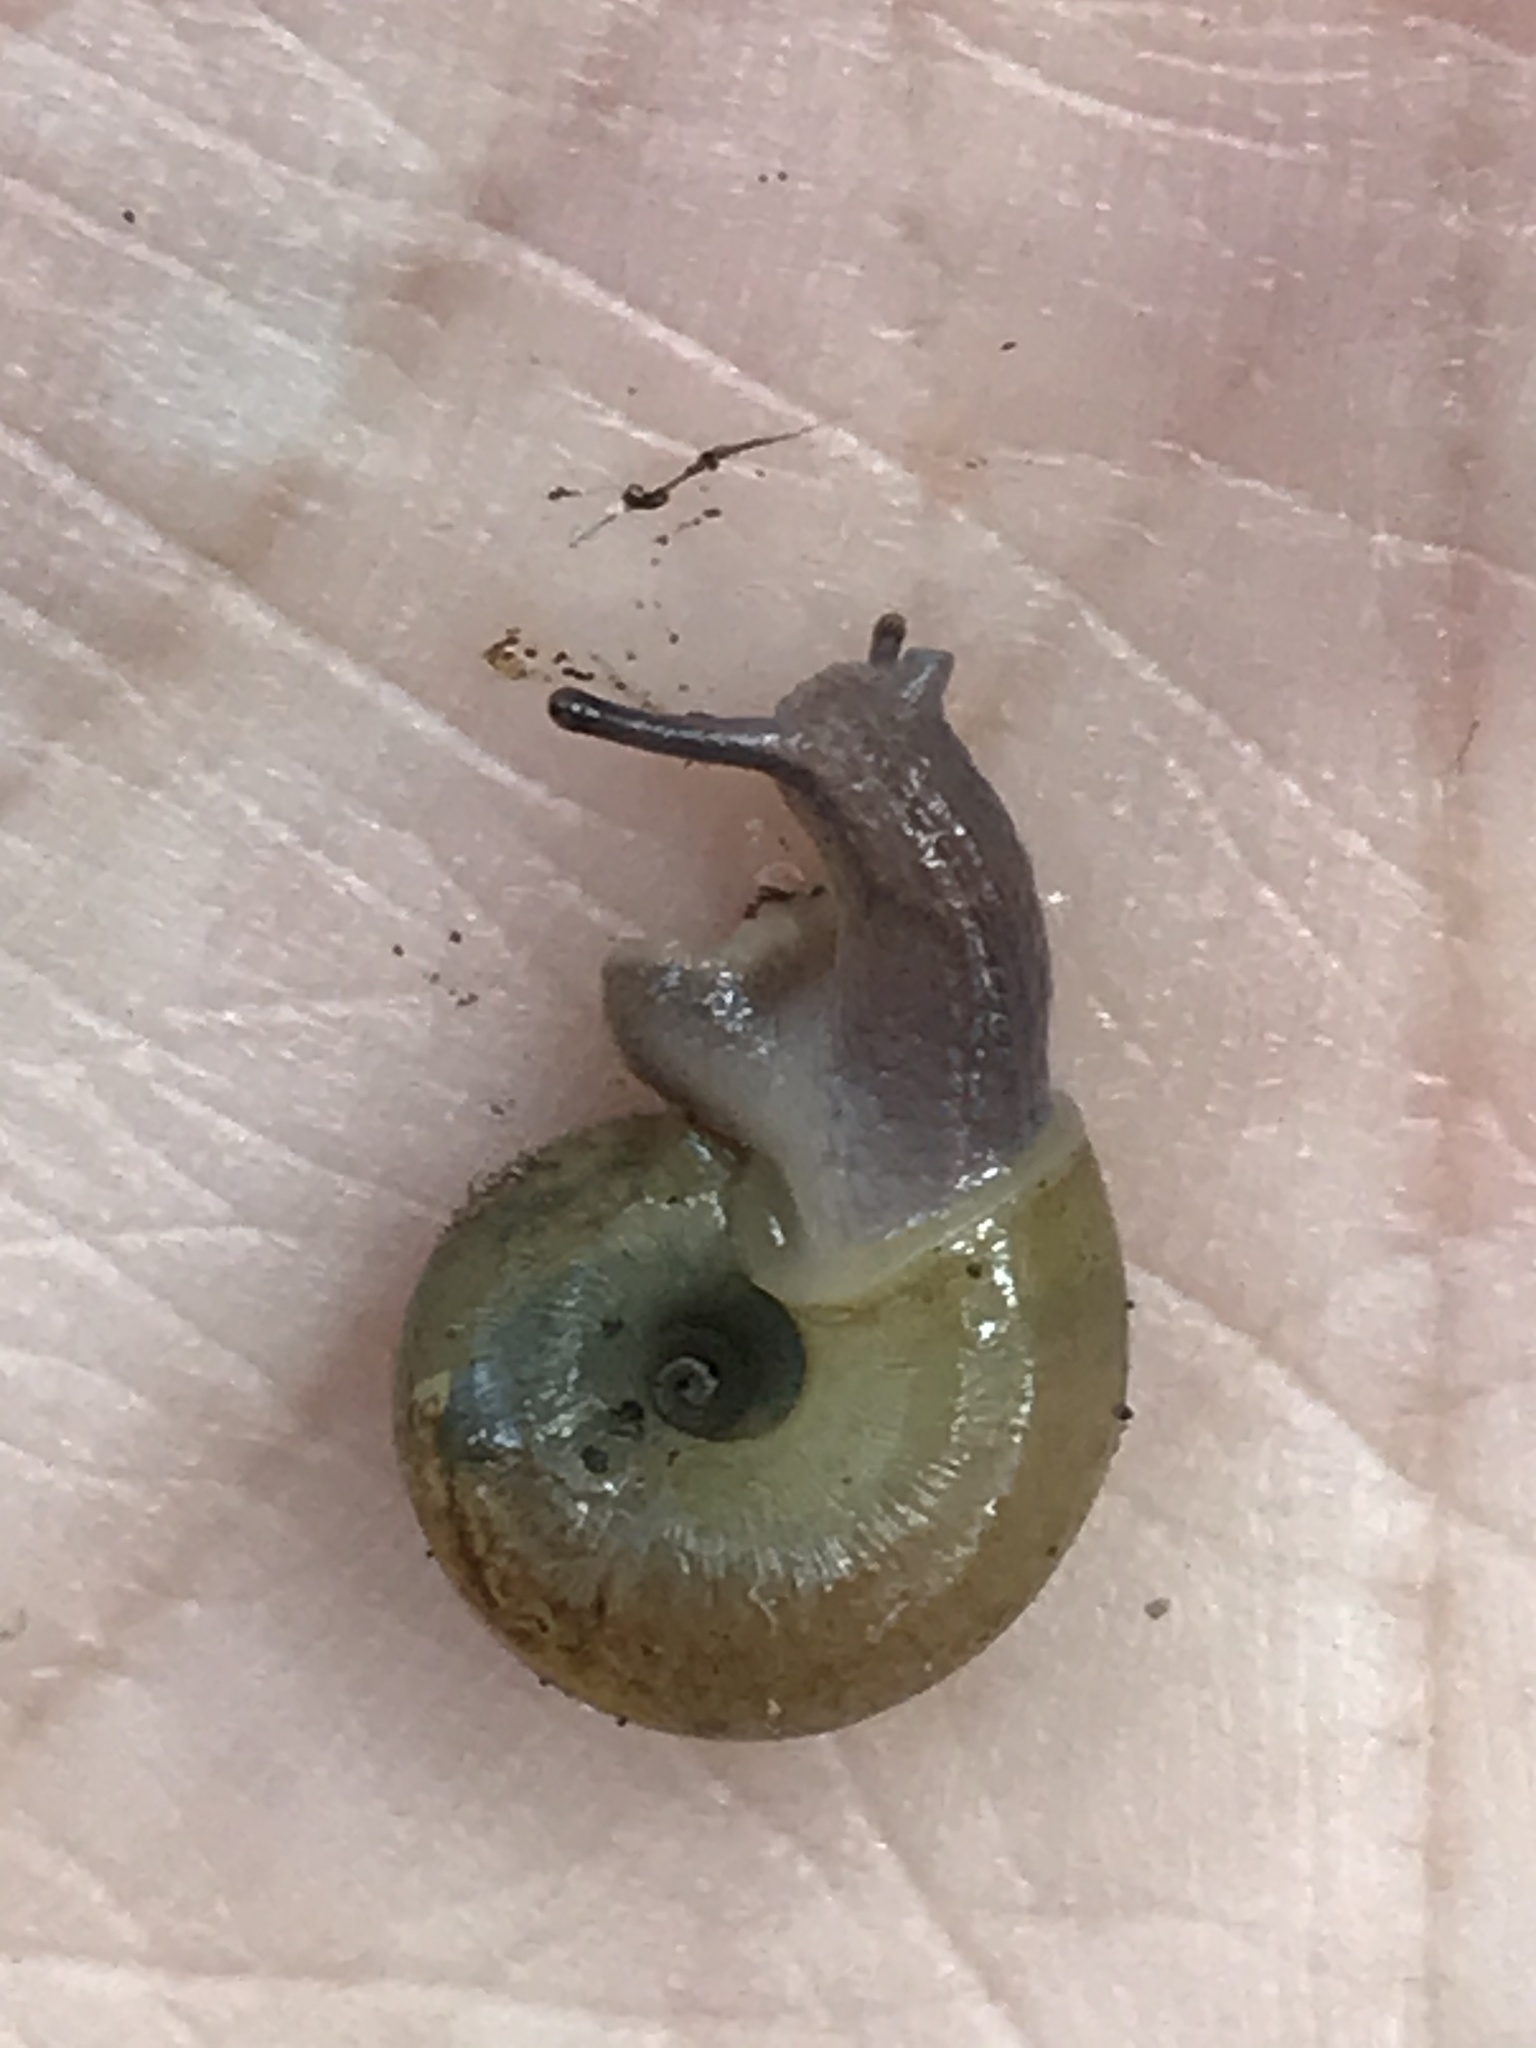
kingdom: Animalia
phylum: Mollusca
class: Gastropoda
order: Stylommatophora
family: Haplotrematidae
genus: Haplotrema
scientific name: Haplotrema minimum
